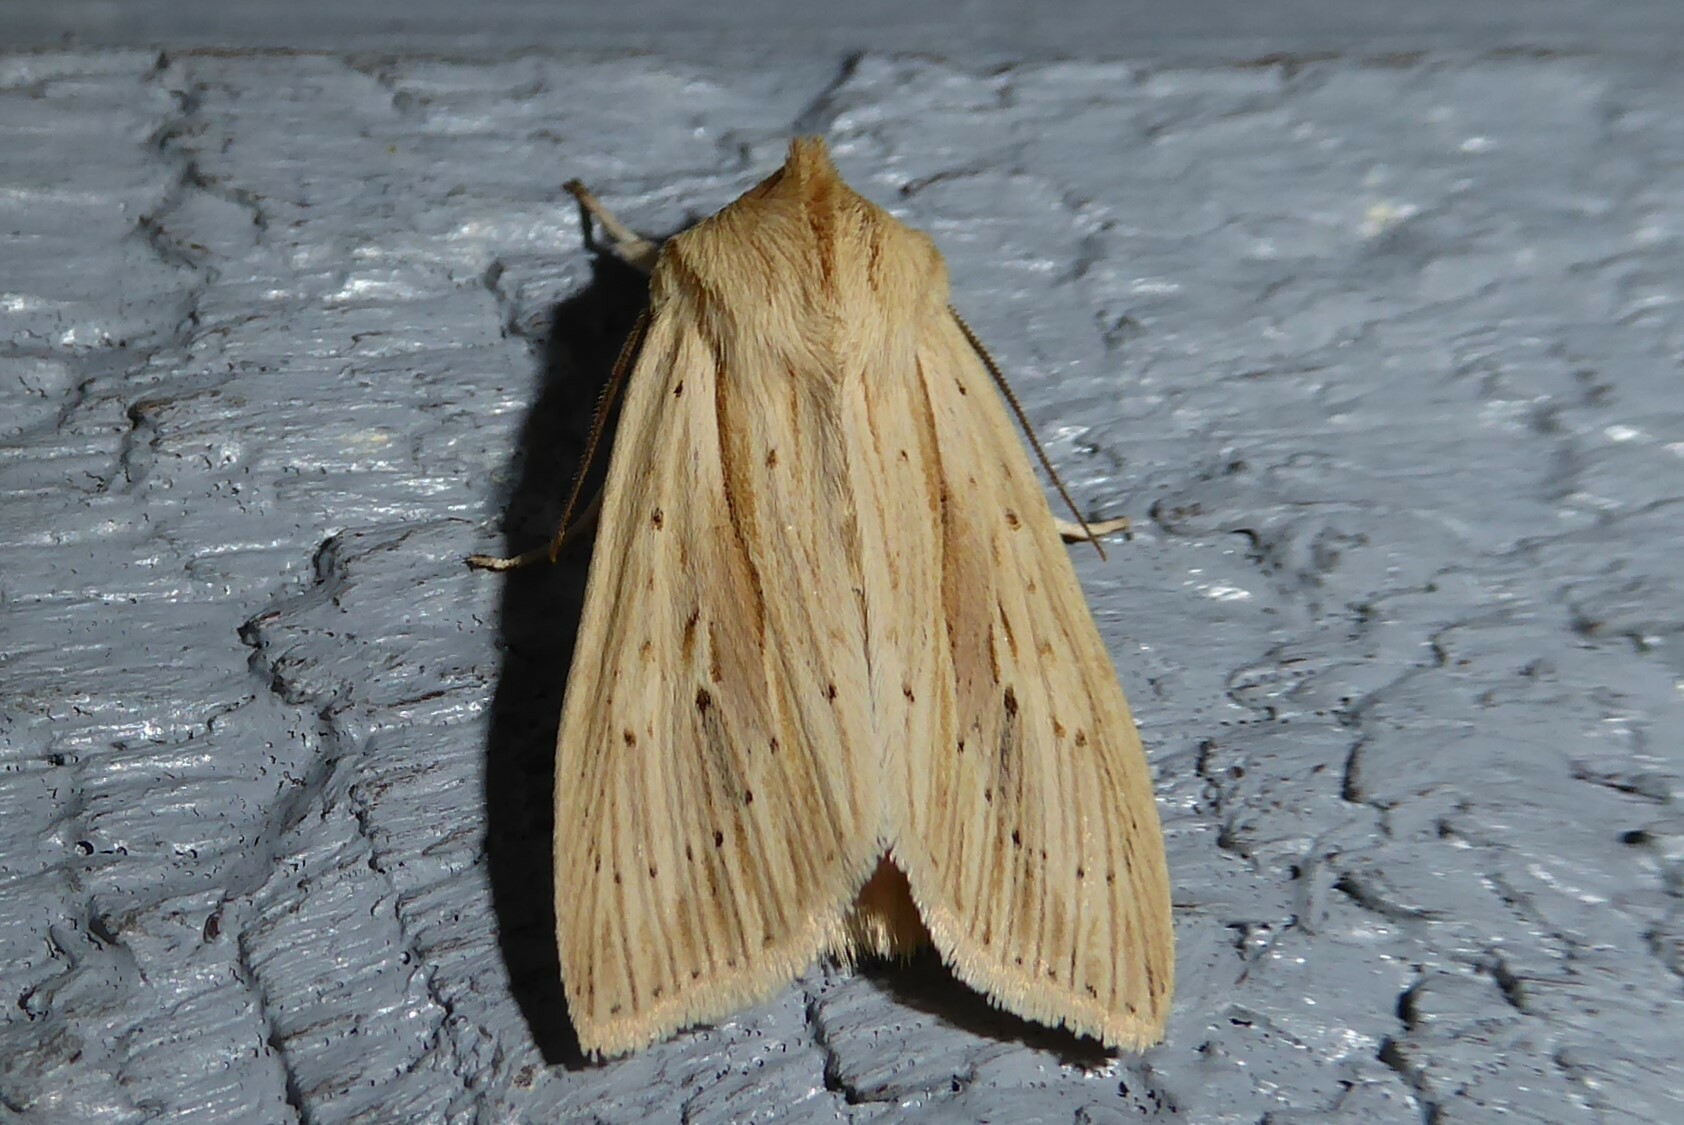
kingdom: Animalia
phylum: Arthropoda
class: Insecta
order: Lepidoptera
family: Noctuidae
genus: Ichneutica
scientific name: Ichneutica semivittata
